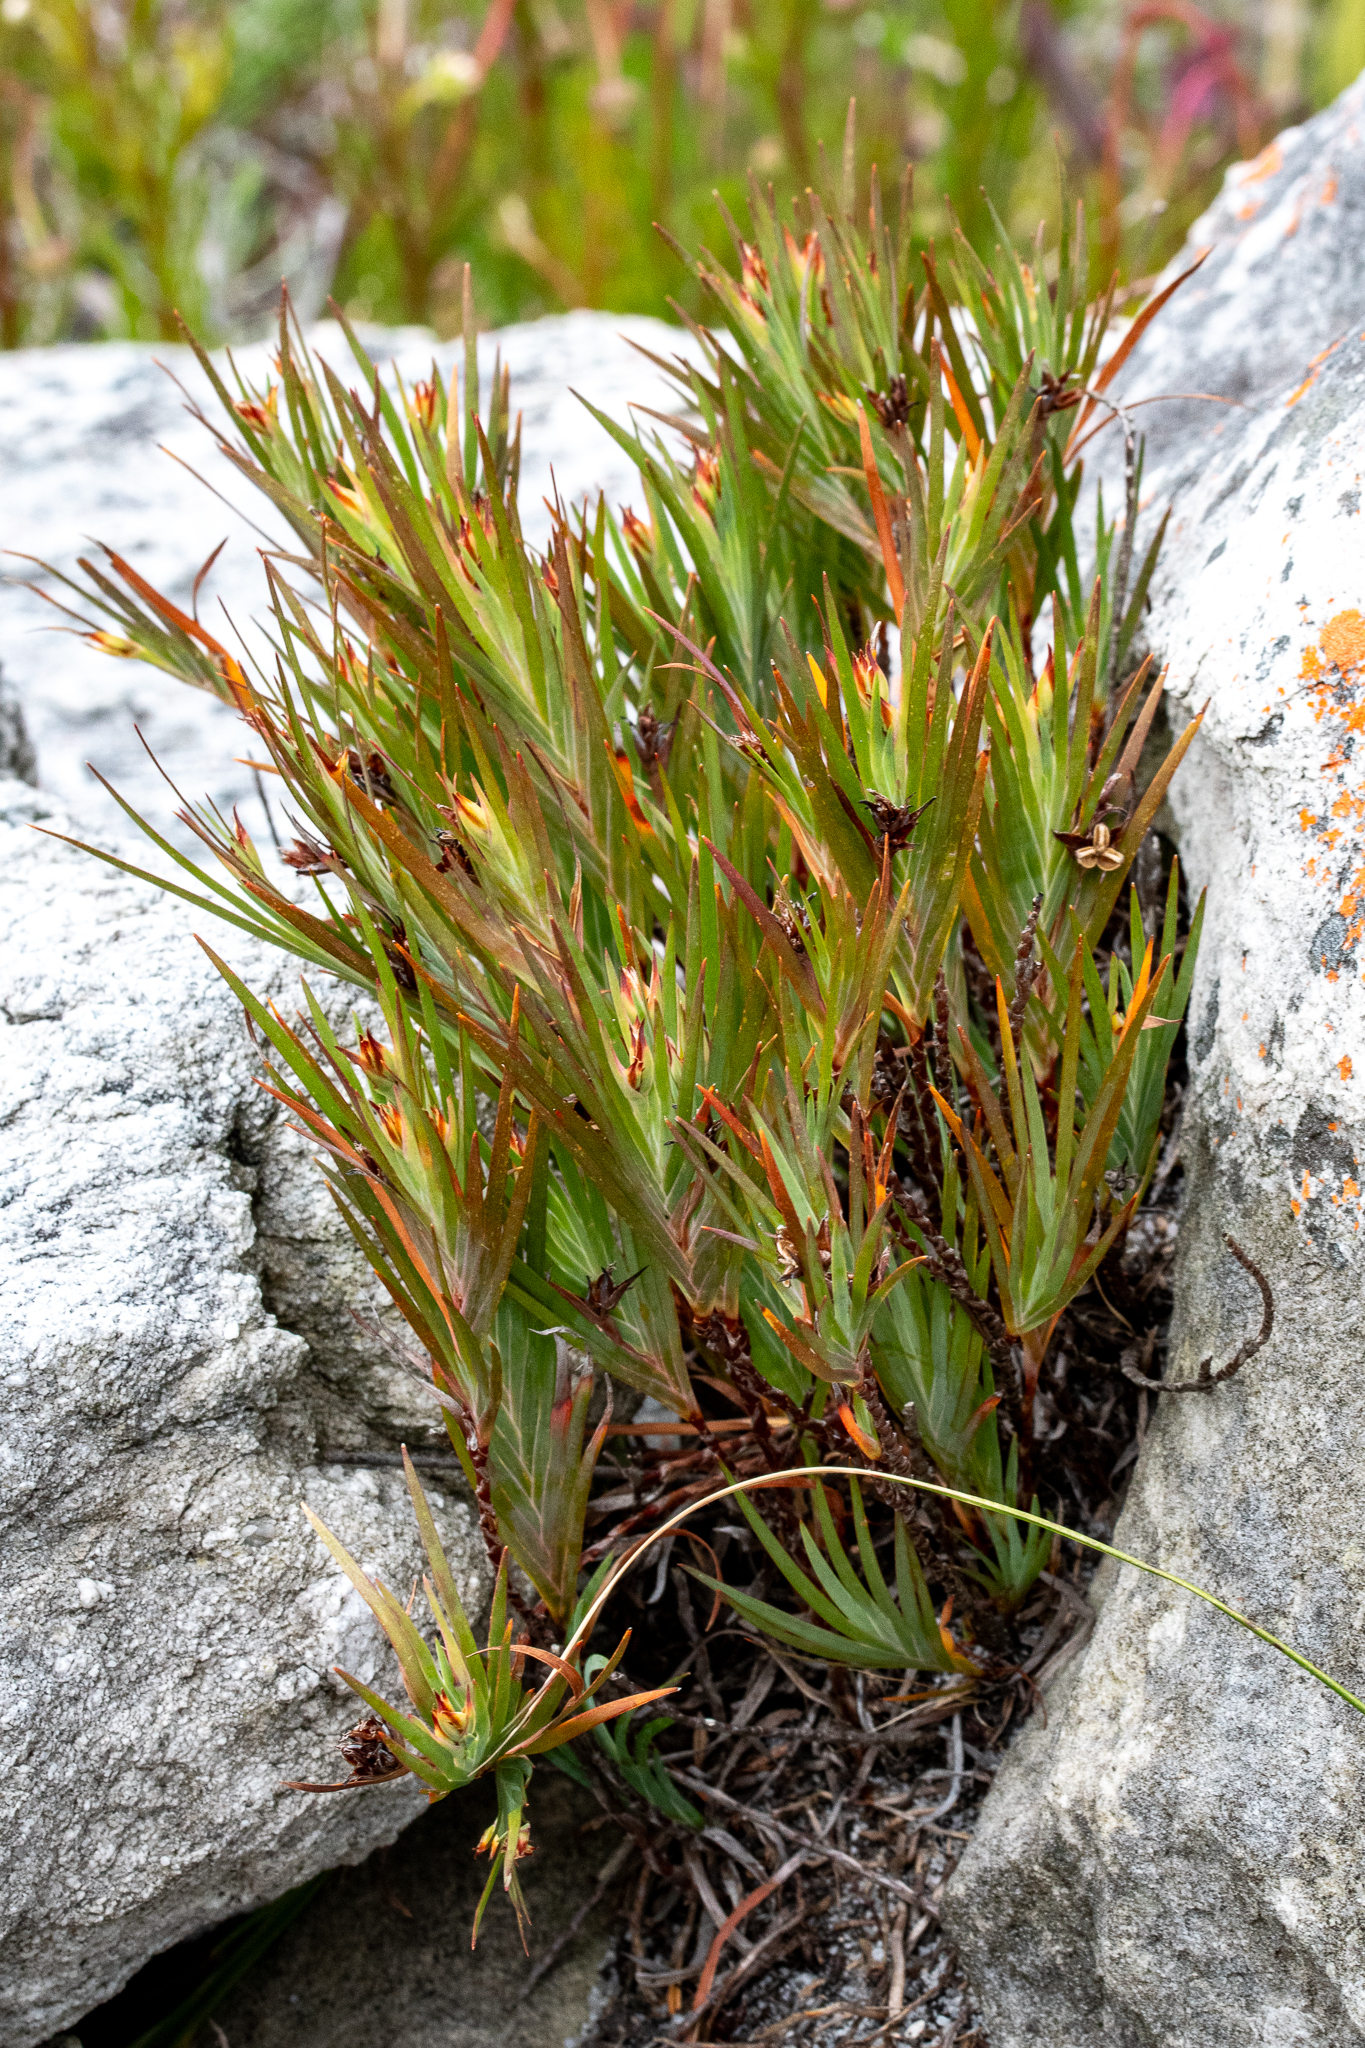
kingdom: Plantae
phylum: Tracheophyta
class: Liliopsida
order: Asparagales
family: Iridaceae
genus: Nivenia
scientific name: Nivenia levynsiae
